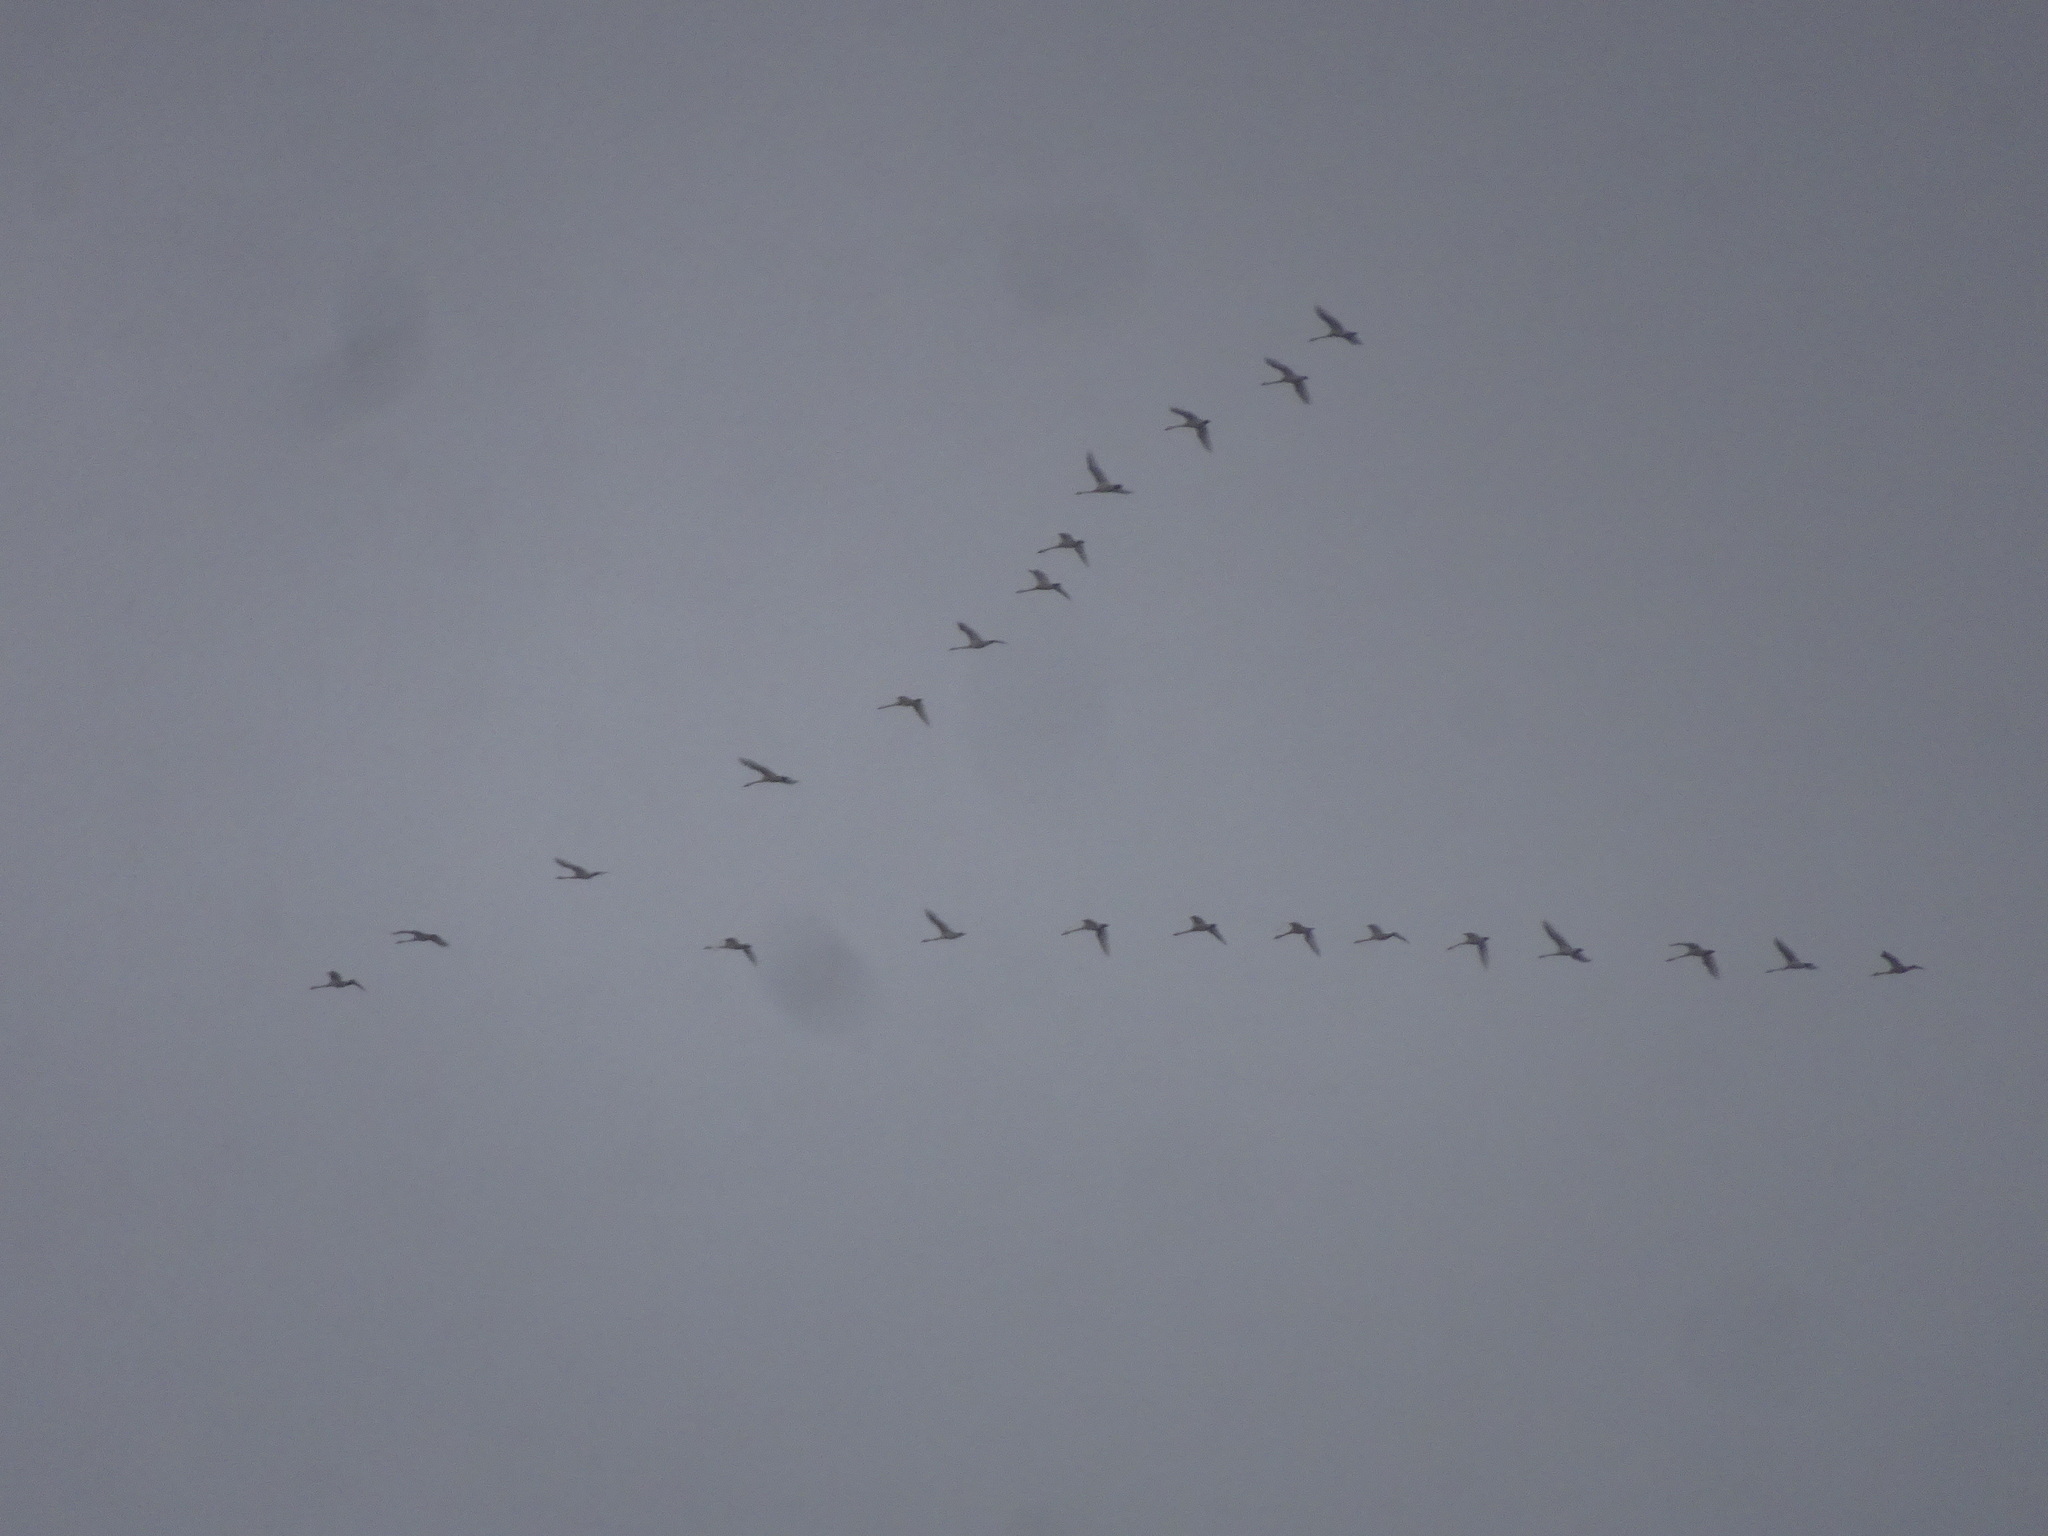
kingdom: Animalia
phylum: Chordata
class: Aves
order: Anseriformes
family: Anatidae
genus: Cygnus
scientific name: Cygnus columbianus
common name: Tundra swan
